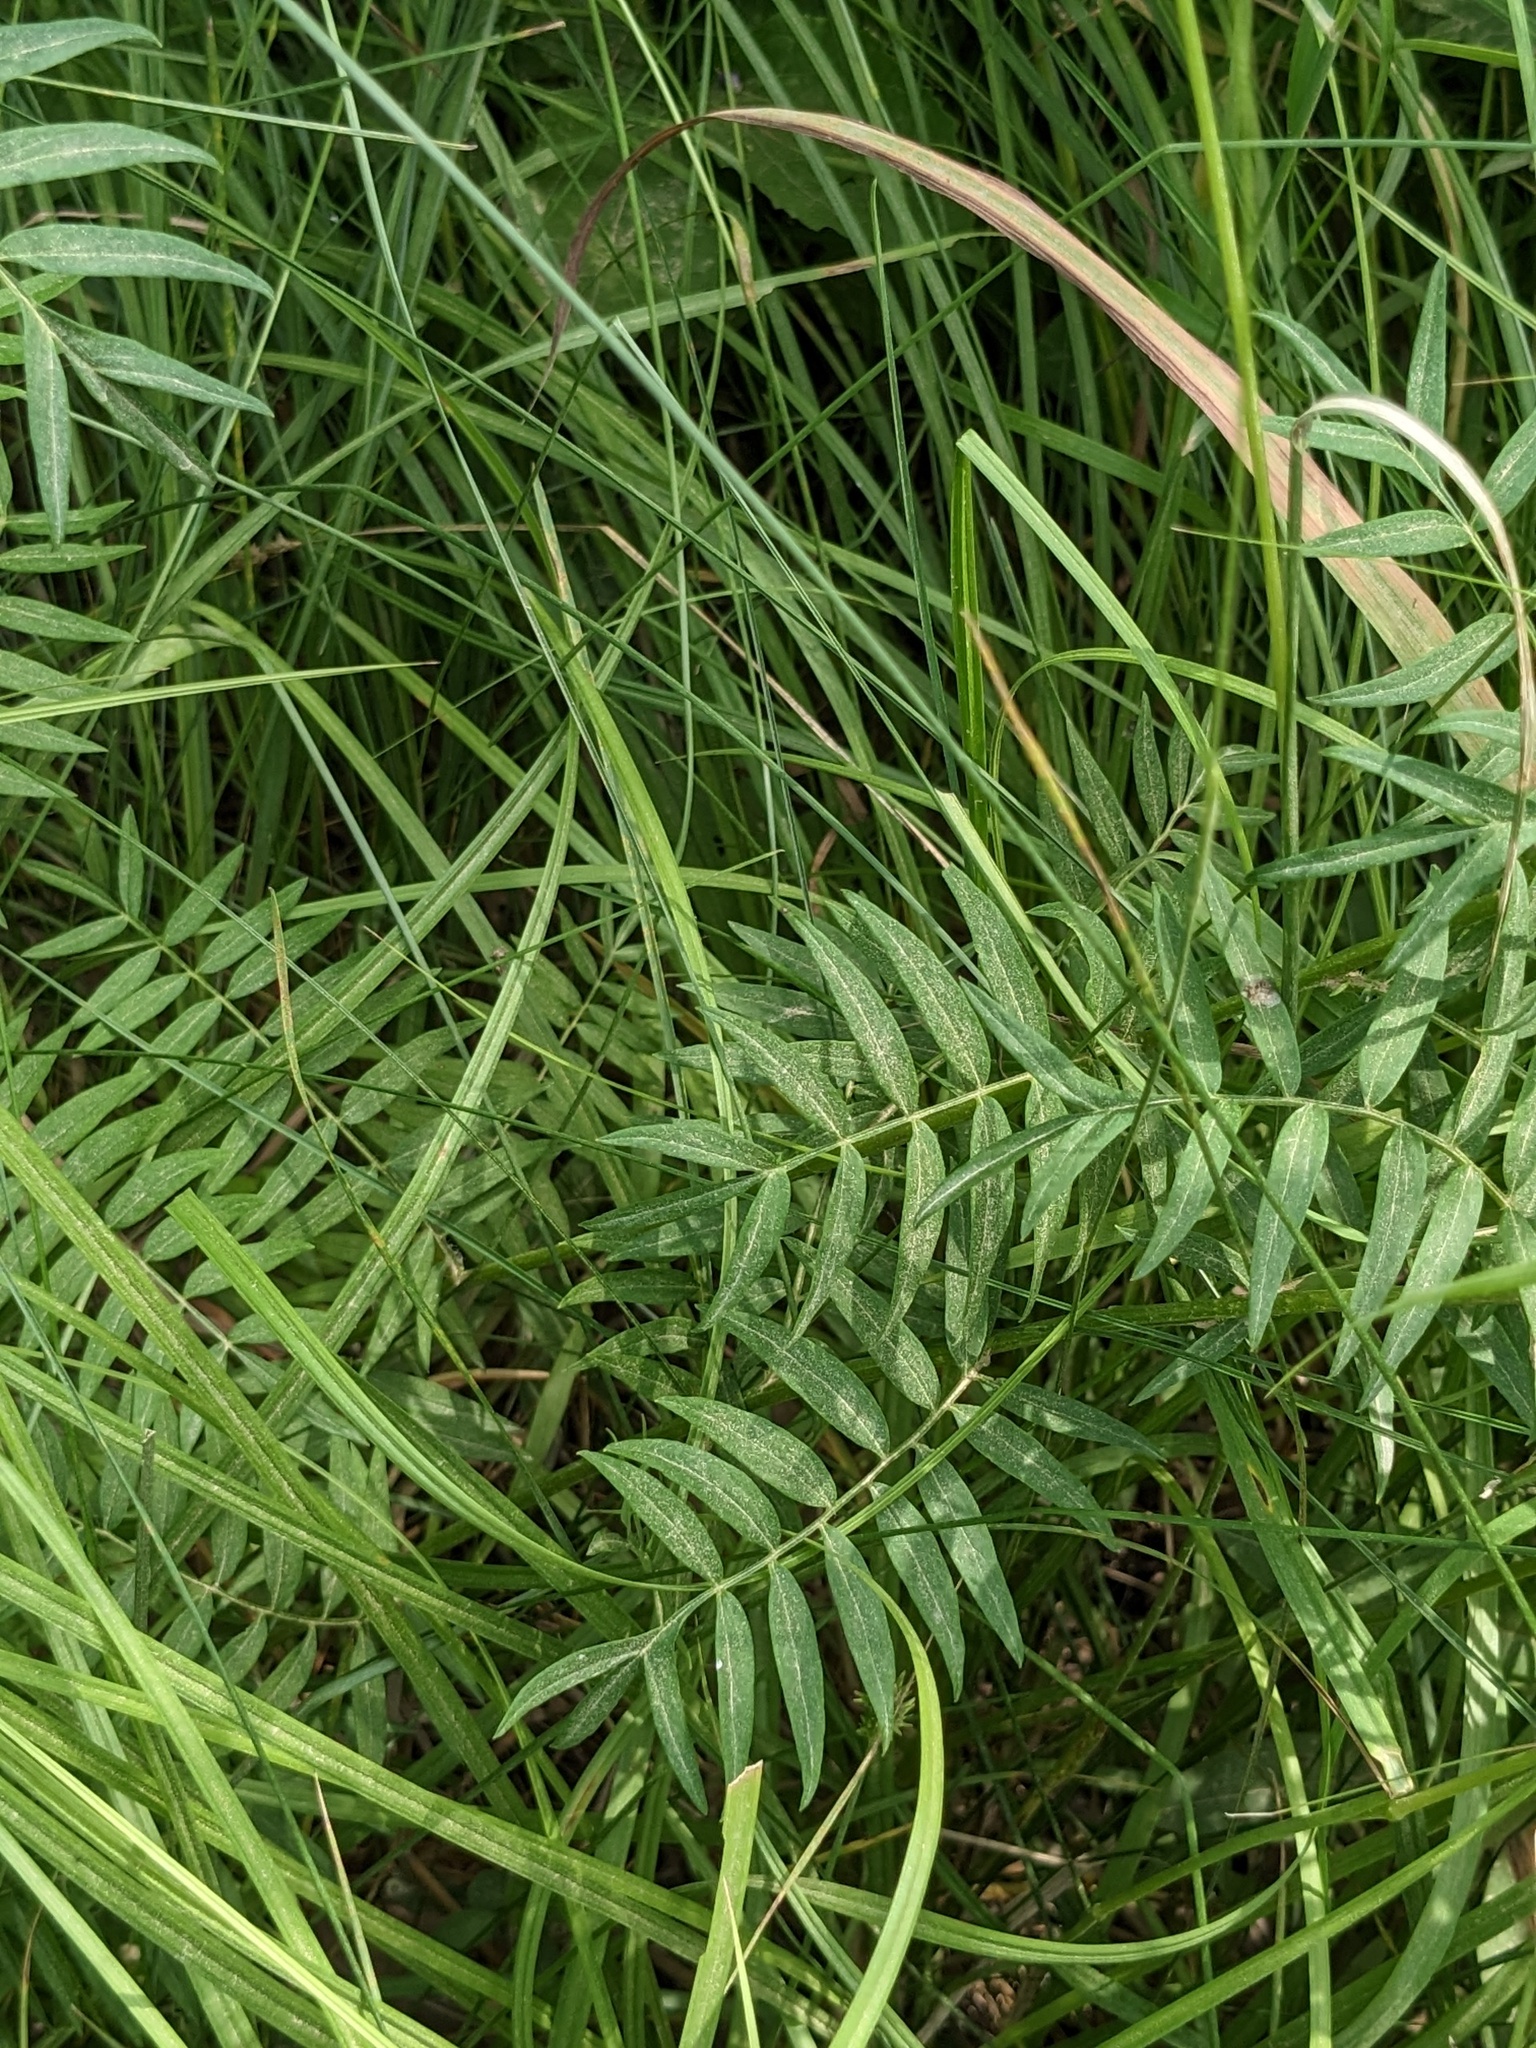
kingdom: Plantae
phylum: Tracheophyta
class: Magnoliopsida
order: Ericales
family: Polemoniaceae
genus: Polemonium
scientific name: Polemonium caeruleum
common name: Jacob's-ladder
